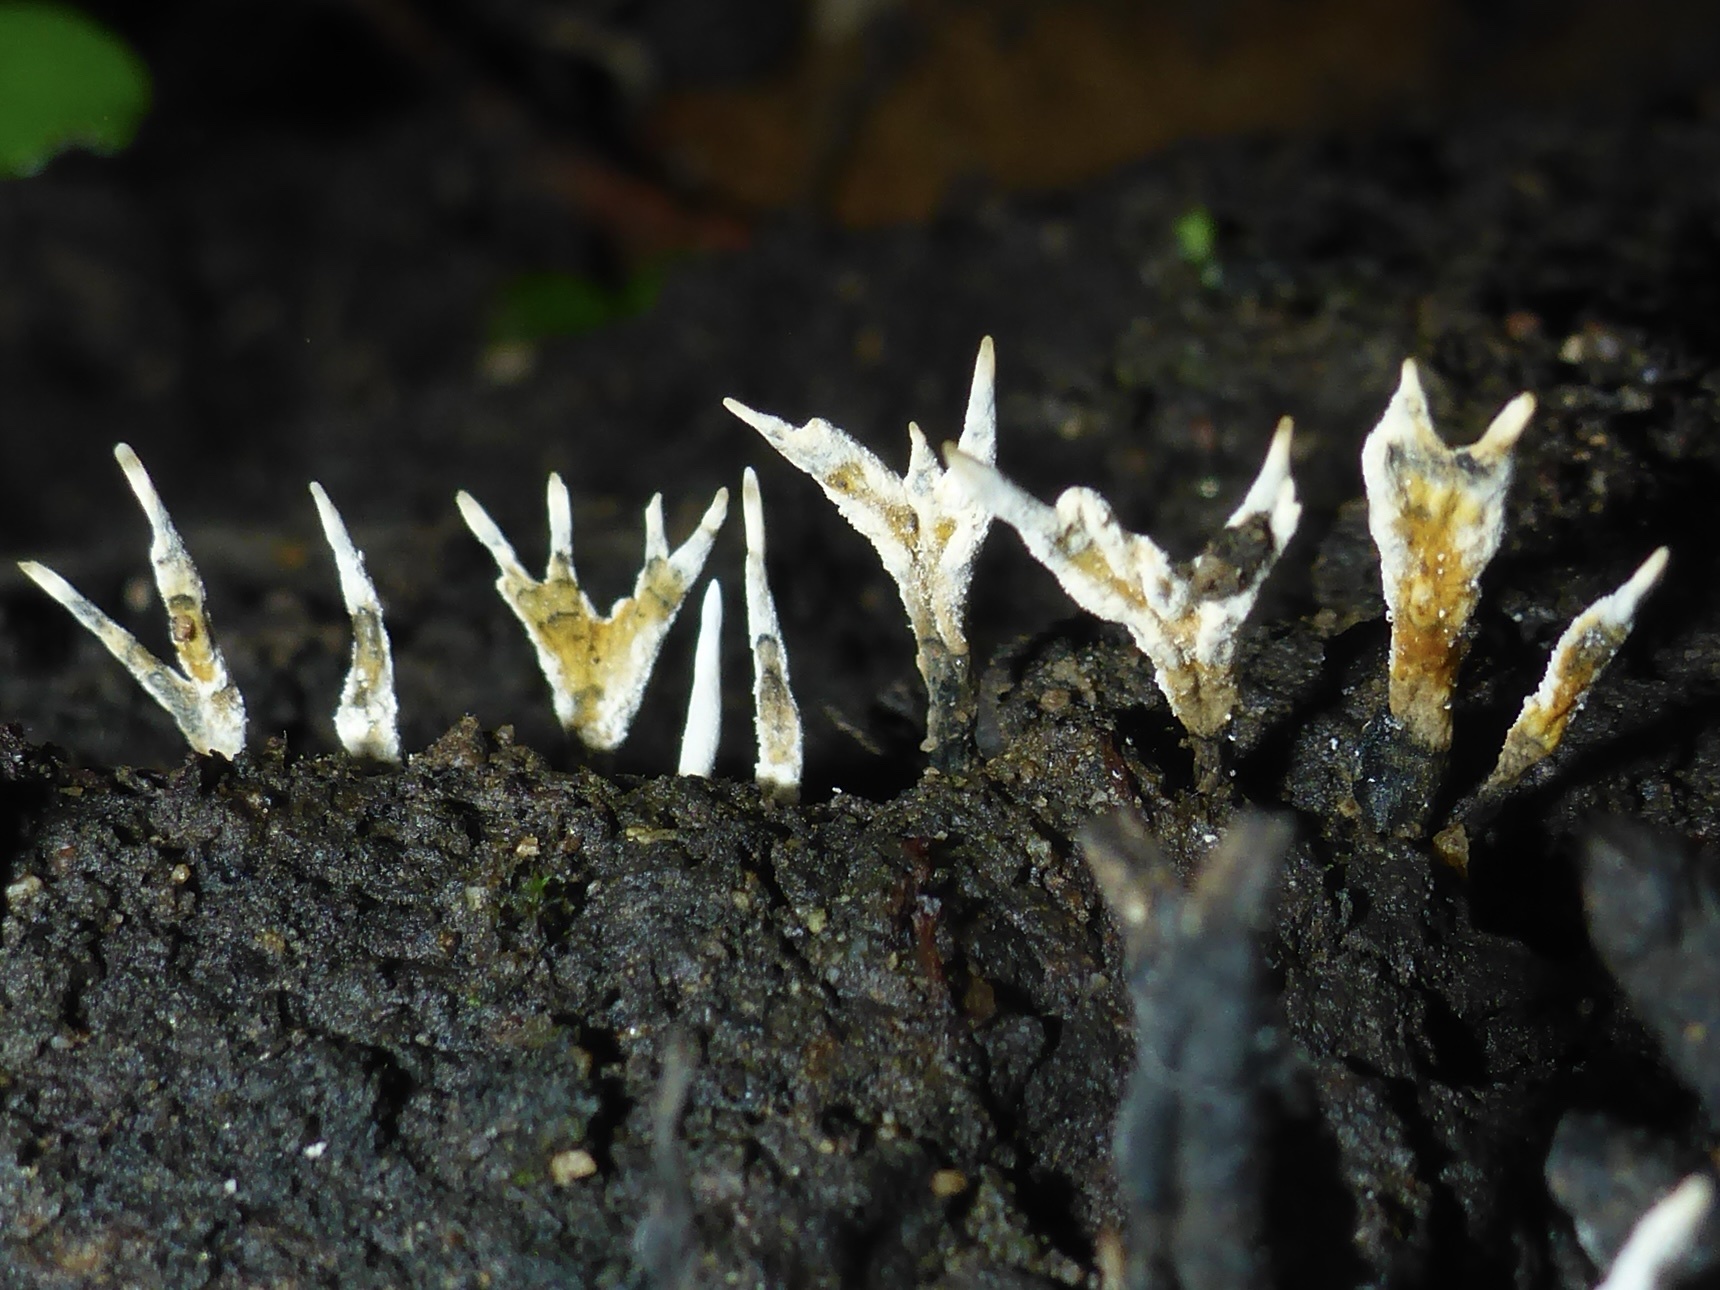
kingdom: Fungi
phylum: Ascomycota
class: Sordariomycetes
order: Xylariales
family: Xylariaceae
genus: Xylaria
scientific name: Xylaria hypoxylon
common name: Candle-snuff fungus
